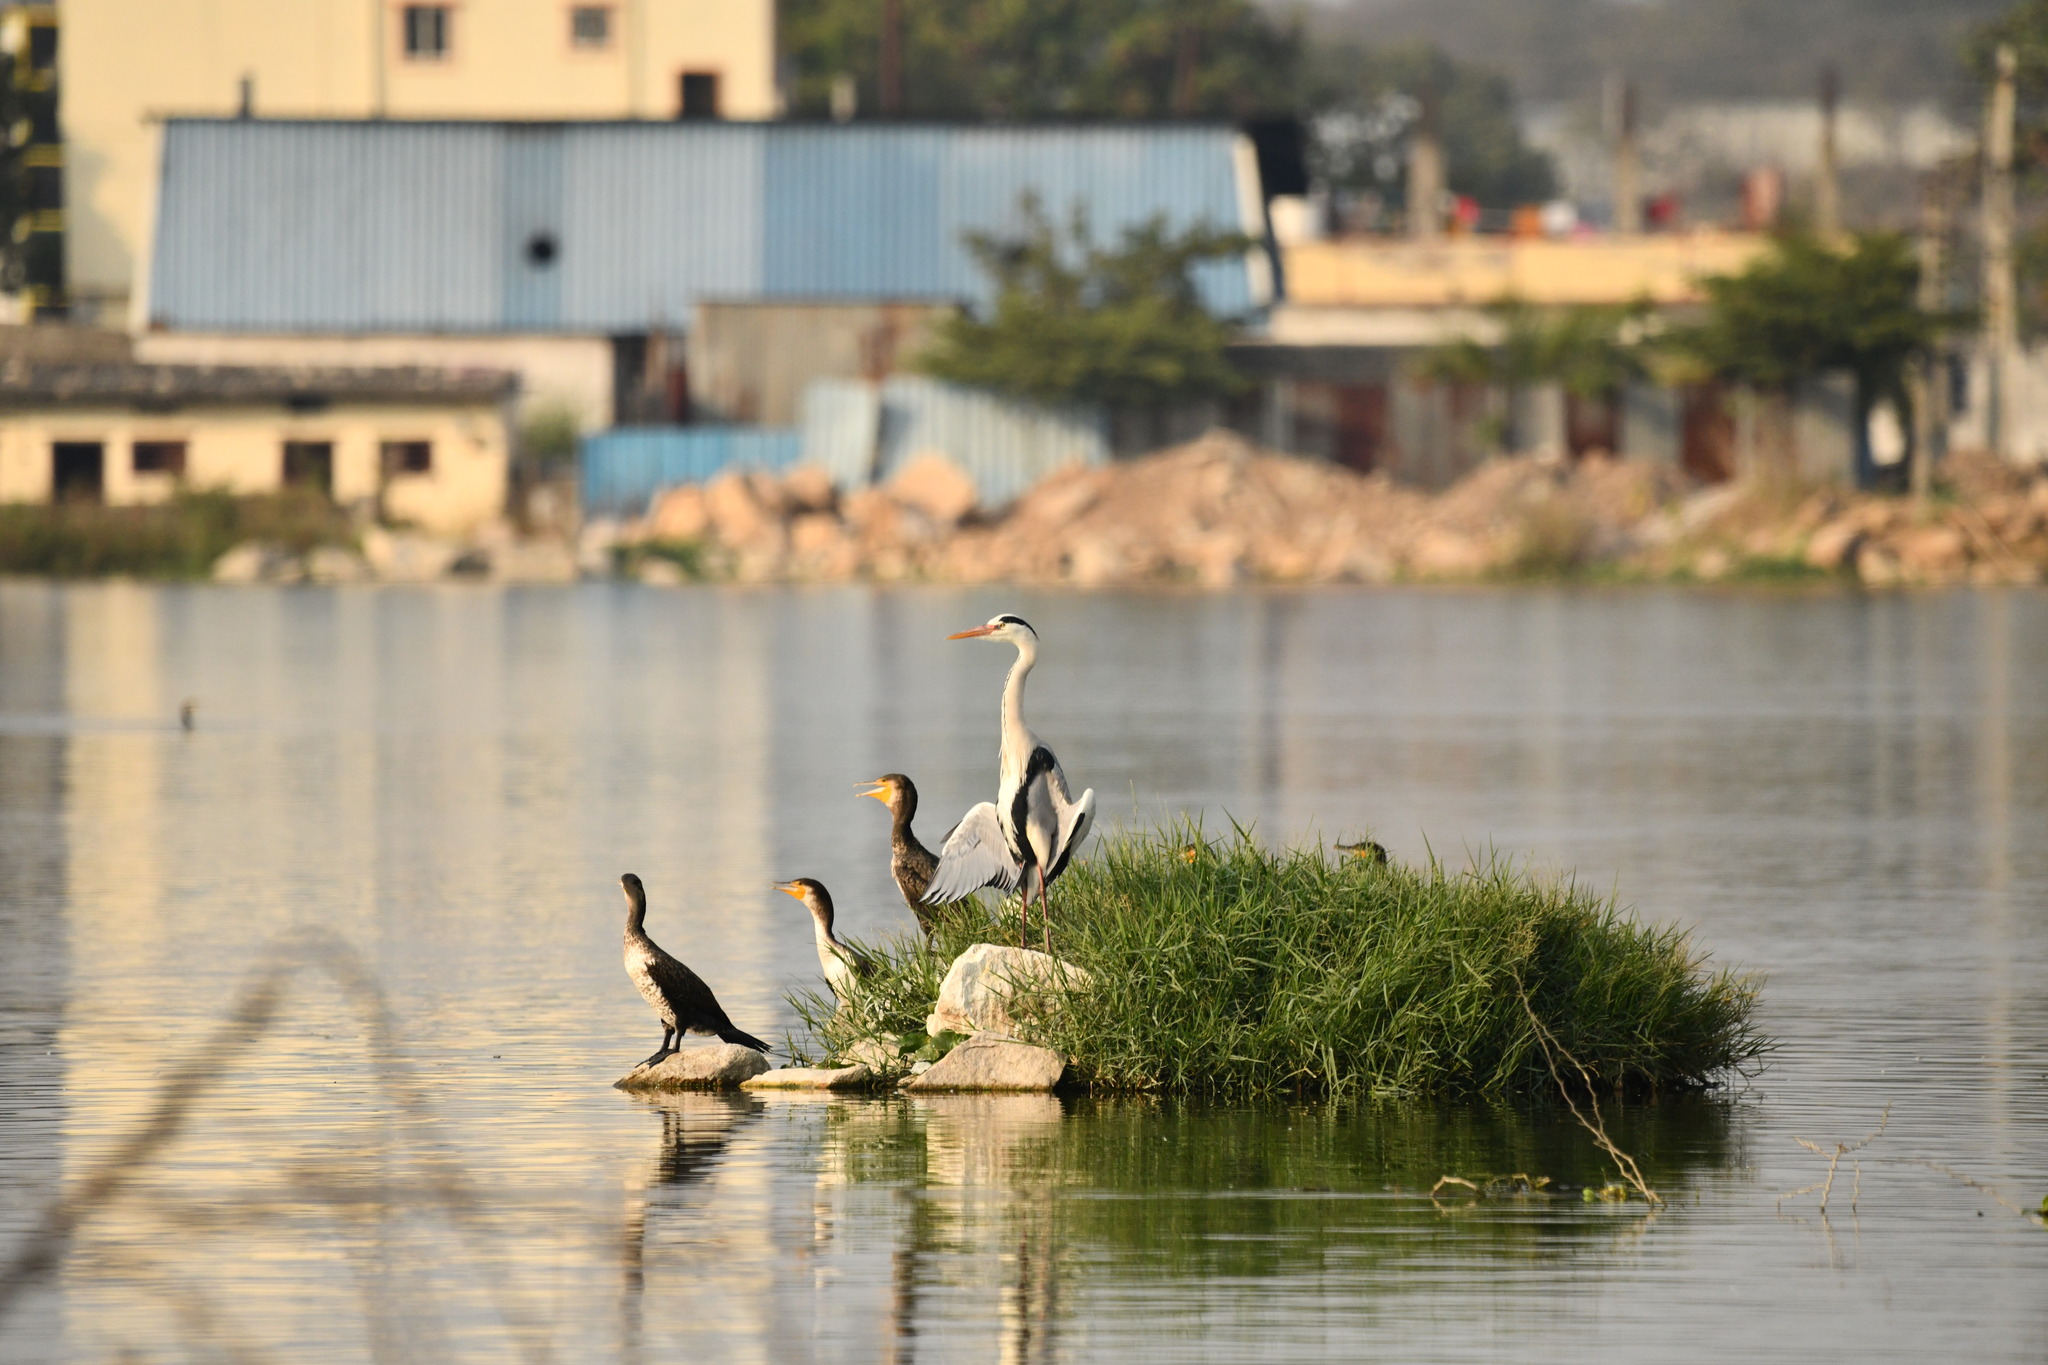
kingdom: Animalia
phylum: Chordata
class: Aves
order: Pelecaniformes
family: Ardeidae
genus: Ardea
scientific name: Ardea cinerea
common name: Grey heron
